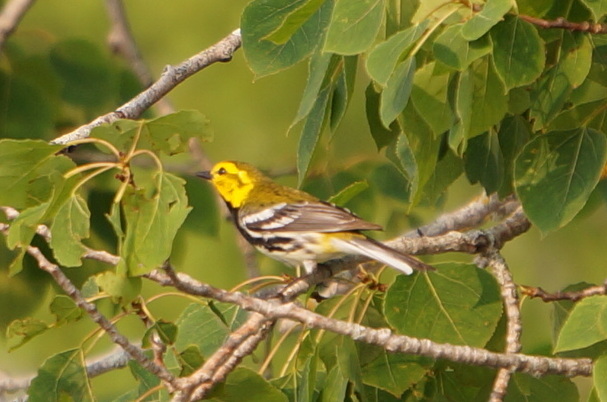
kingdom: Animalia
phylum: Chordata
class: Aves
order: Passeriformes
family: Parulidae
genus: Setophaga
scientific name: Setophaga virens
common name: Black-throated green warbler
